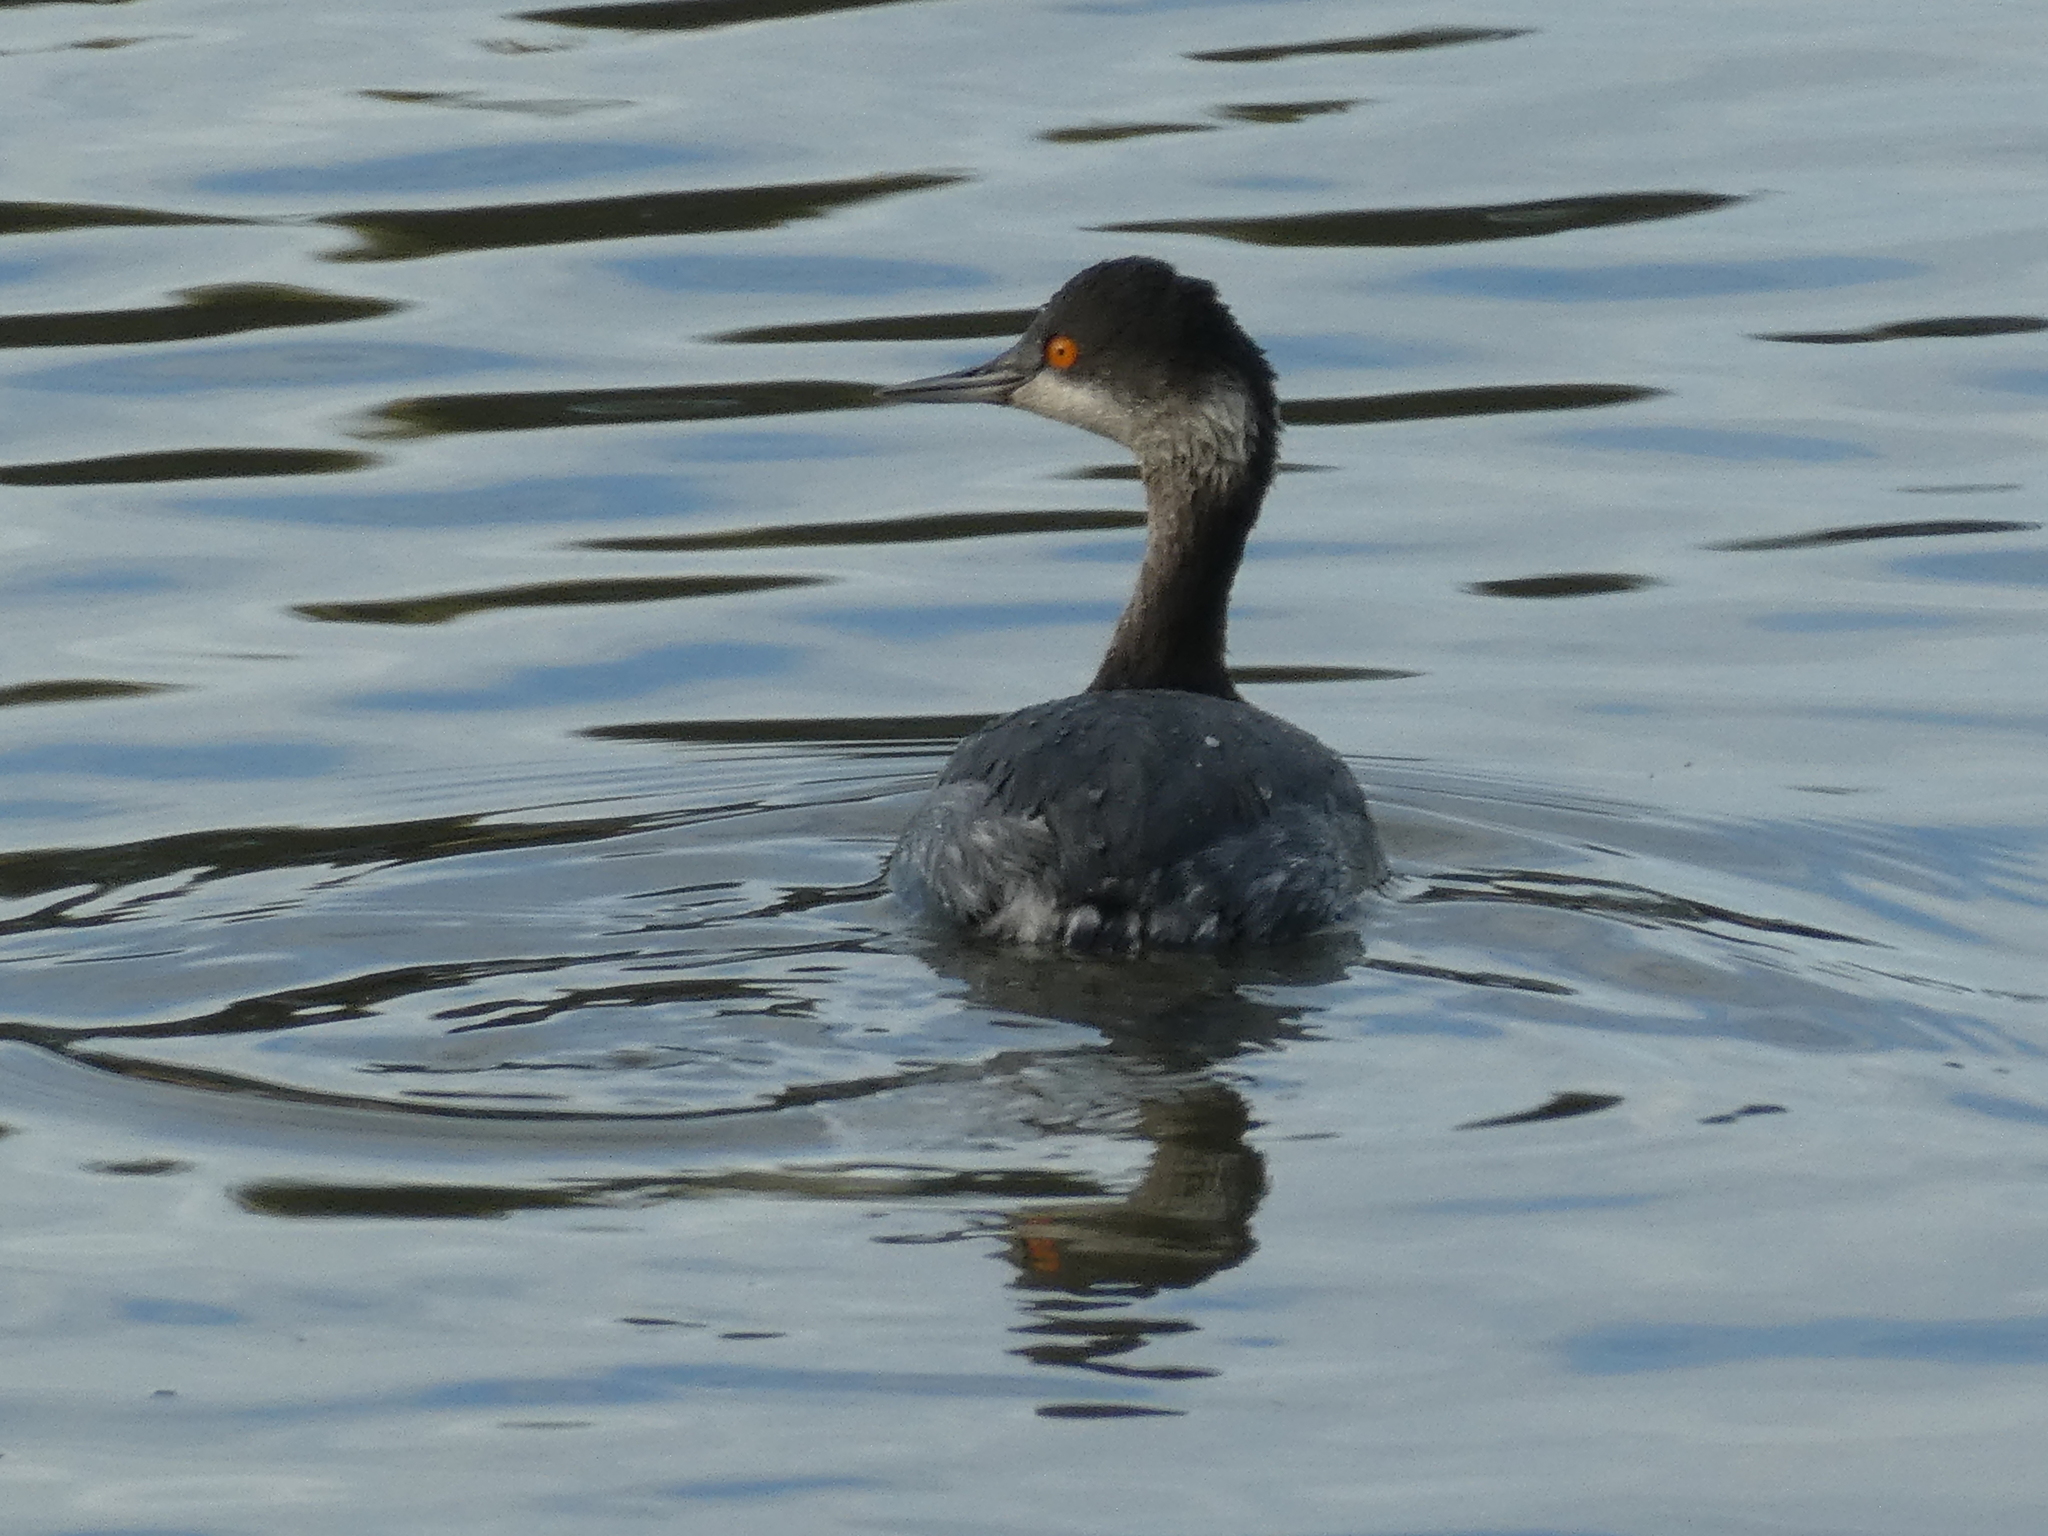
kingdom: Animalia
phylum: Chordata
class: Aves
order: Podicipediformes
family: Podicipedidae
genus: Podiceps
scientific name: Podiceps auritus
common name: Horned grebe
